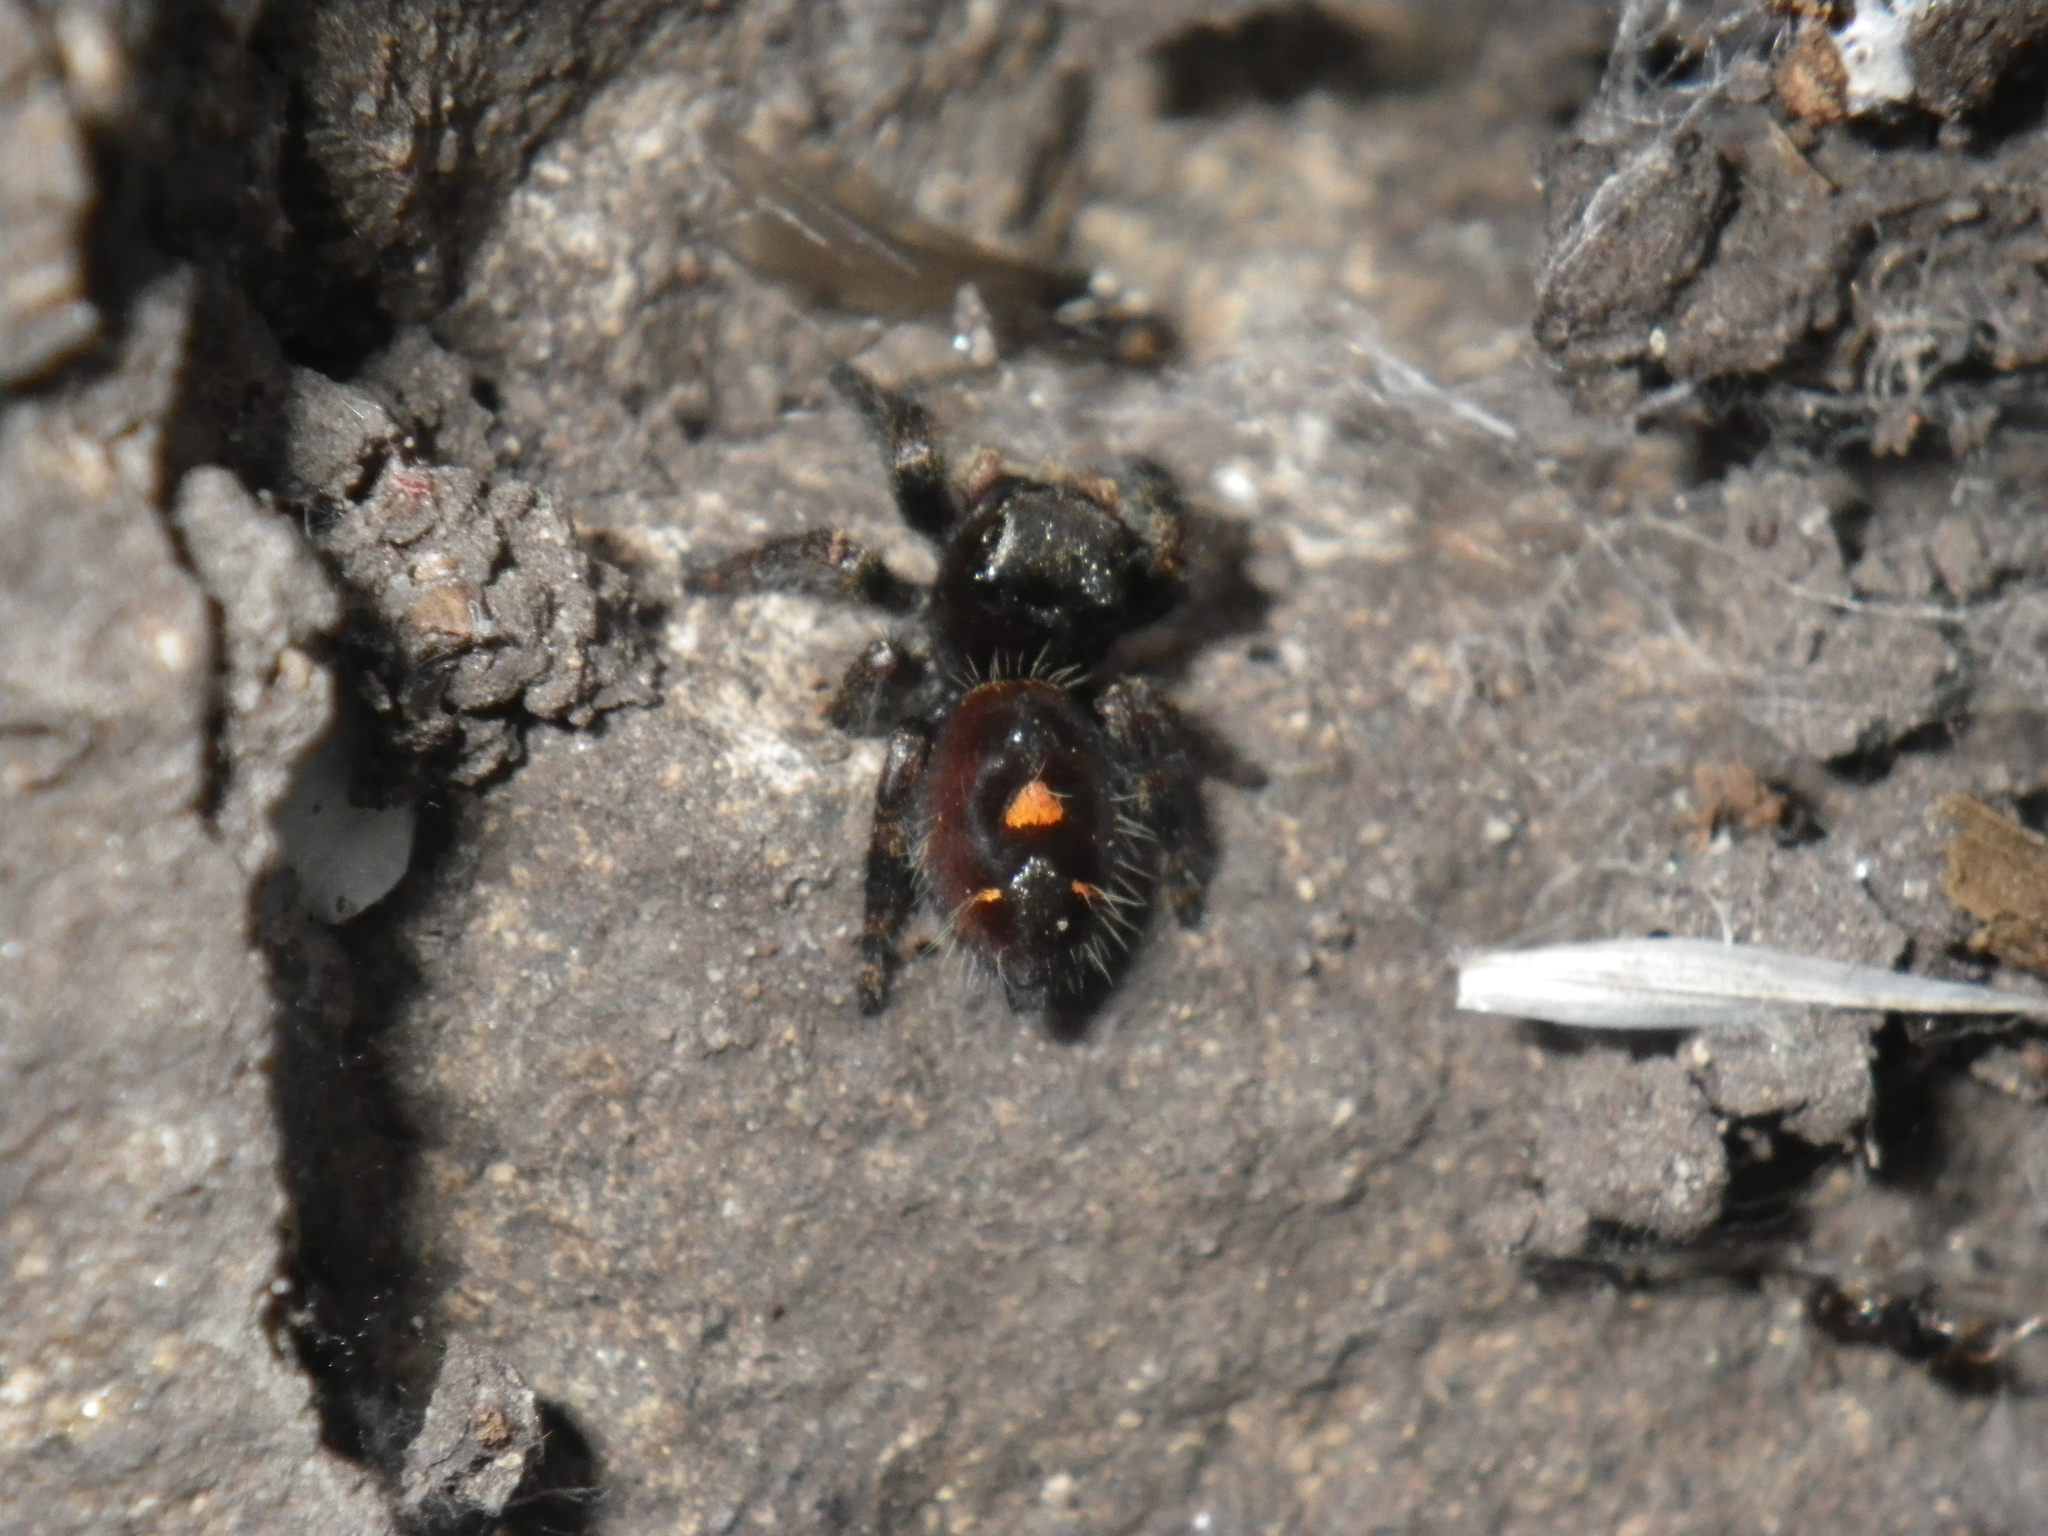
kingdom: Animalia
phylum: Arthropoda
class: Arachnida
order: Araneae
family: Salticidae
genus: Phidippus
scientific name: Phidippus audax
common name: Bold jumper
